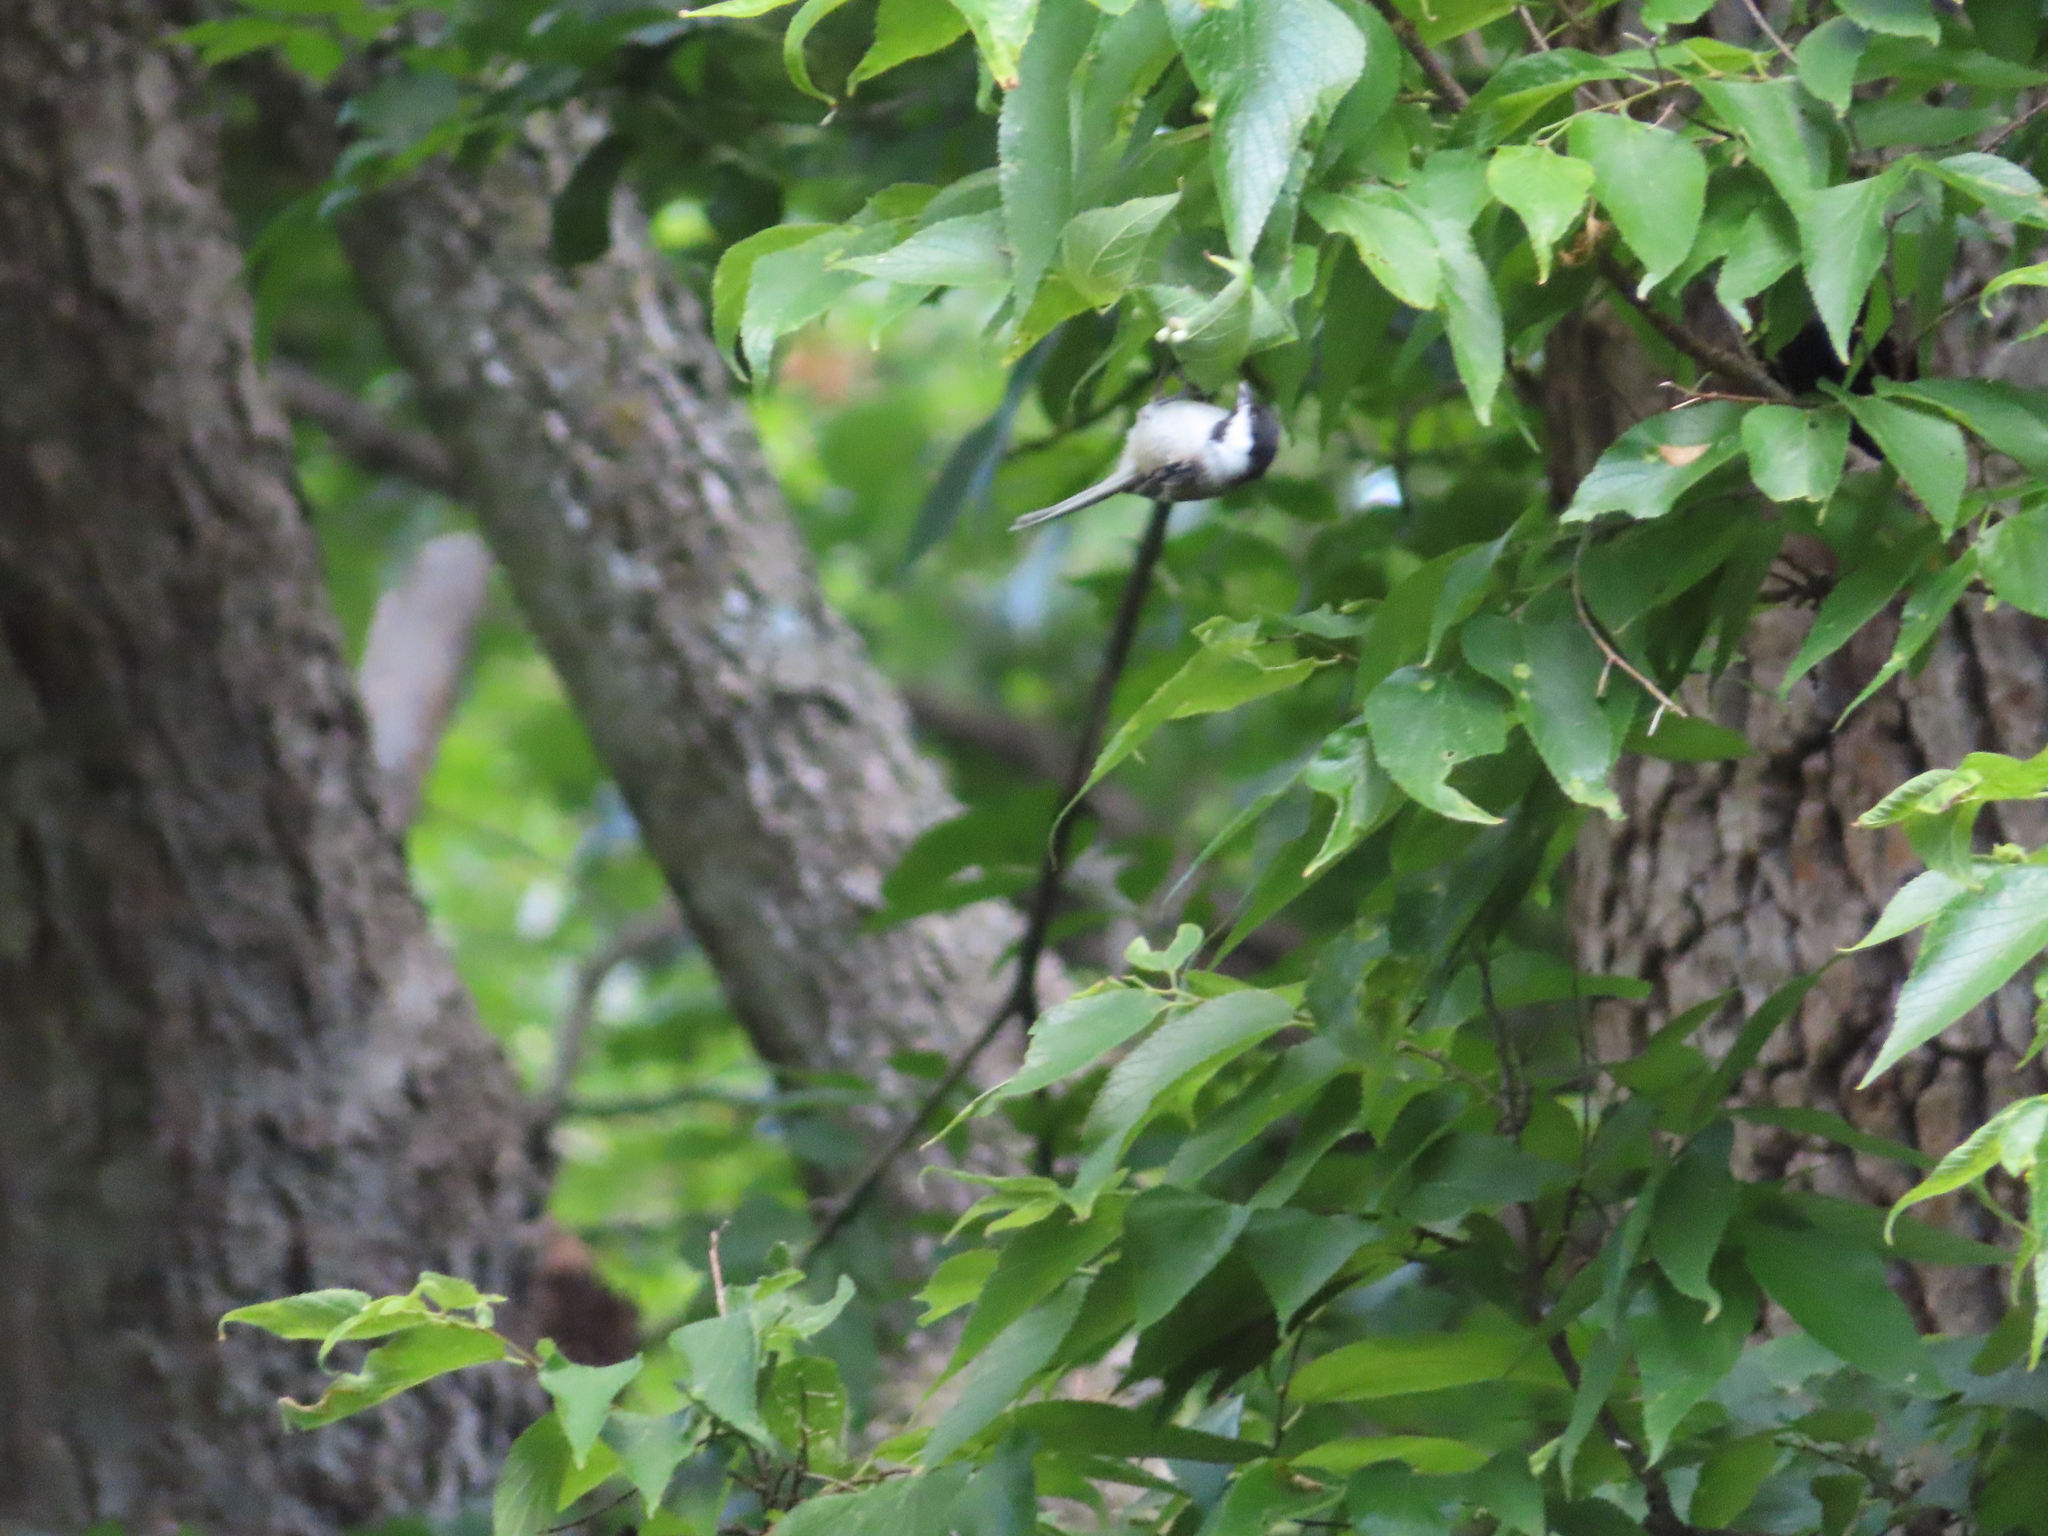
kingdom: Animalia
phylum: Chordata
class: Aves
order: Passeriformes
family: Paridae
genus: Poecile
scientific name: Poecile atricapillus
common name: Black-capped chickadee
